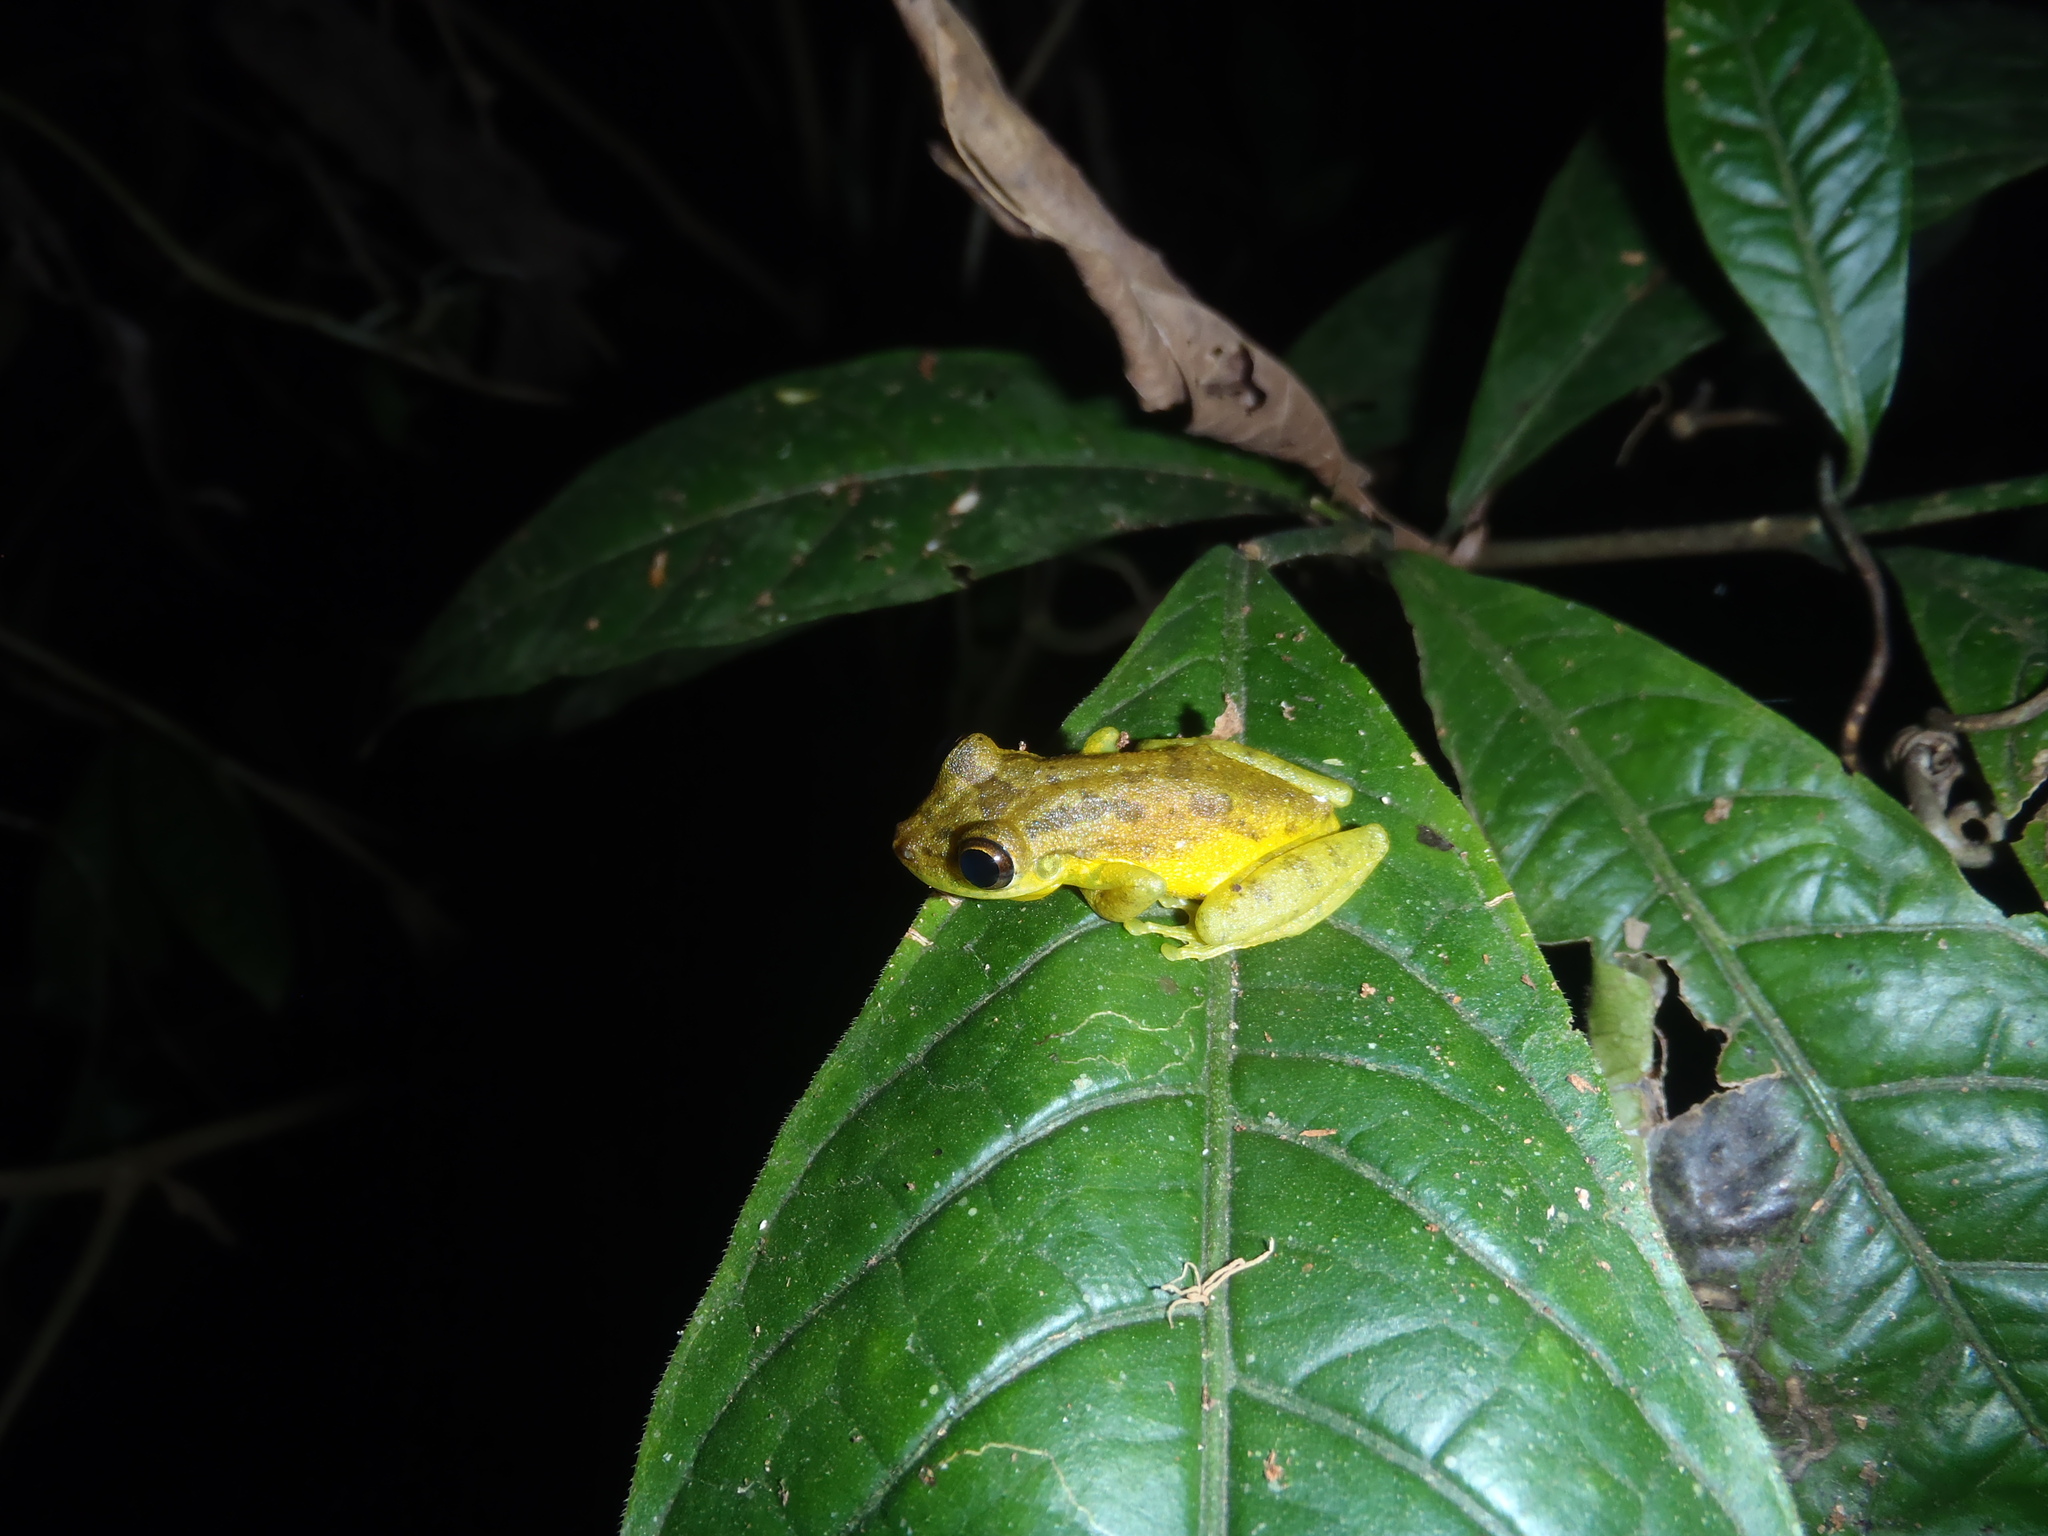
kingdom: Animalia
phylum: Chordata
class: Amphibia
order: Anura
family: Hylidae
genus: Scinax
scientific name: Scinax elaeochroa
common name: Sipurio snouted treefrog
